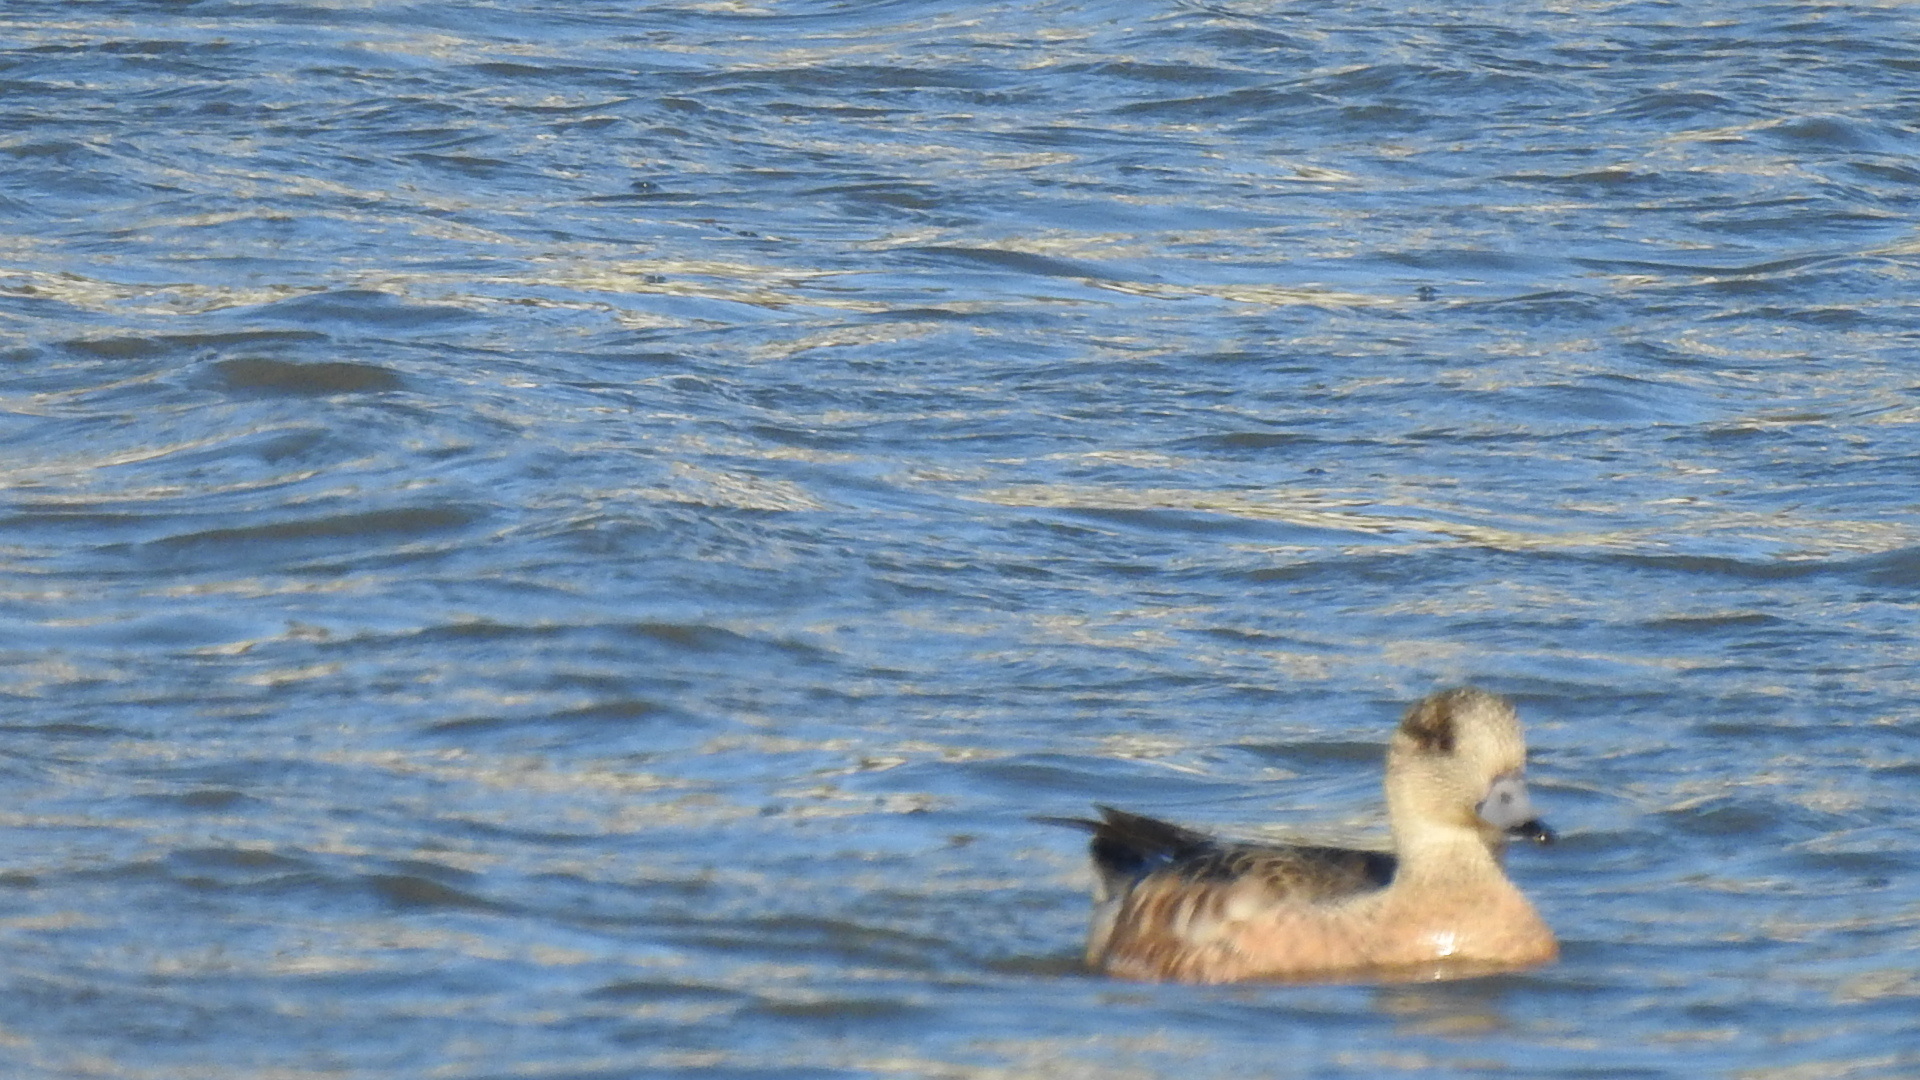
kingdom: Animalia
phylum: Chordata
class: Aves
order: Anseriformes
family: Anatidae
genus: Mareca
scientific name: Mareca americana
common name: American wigeon
